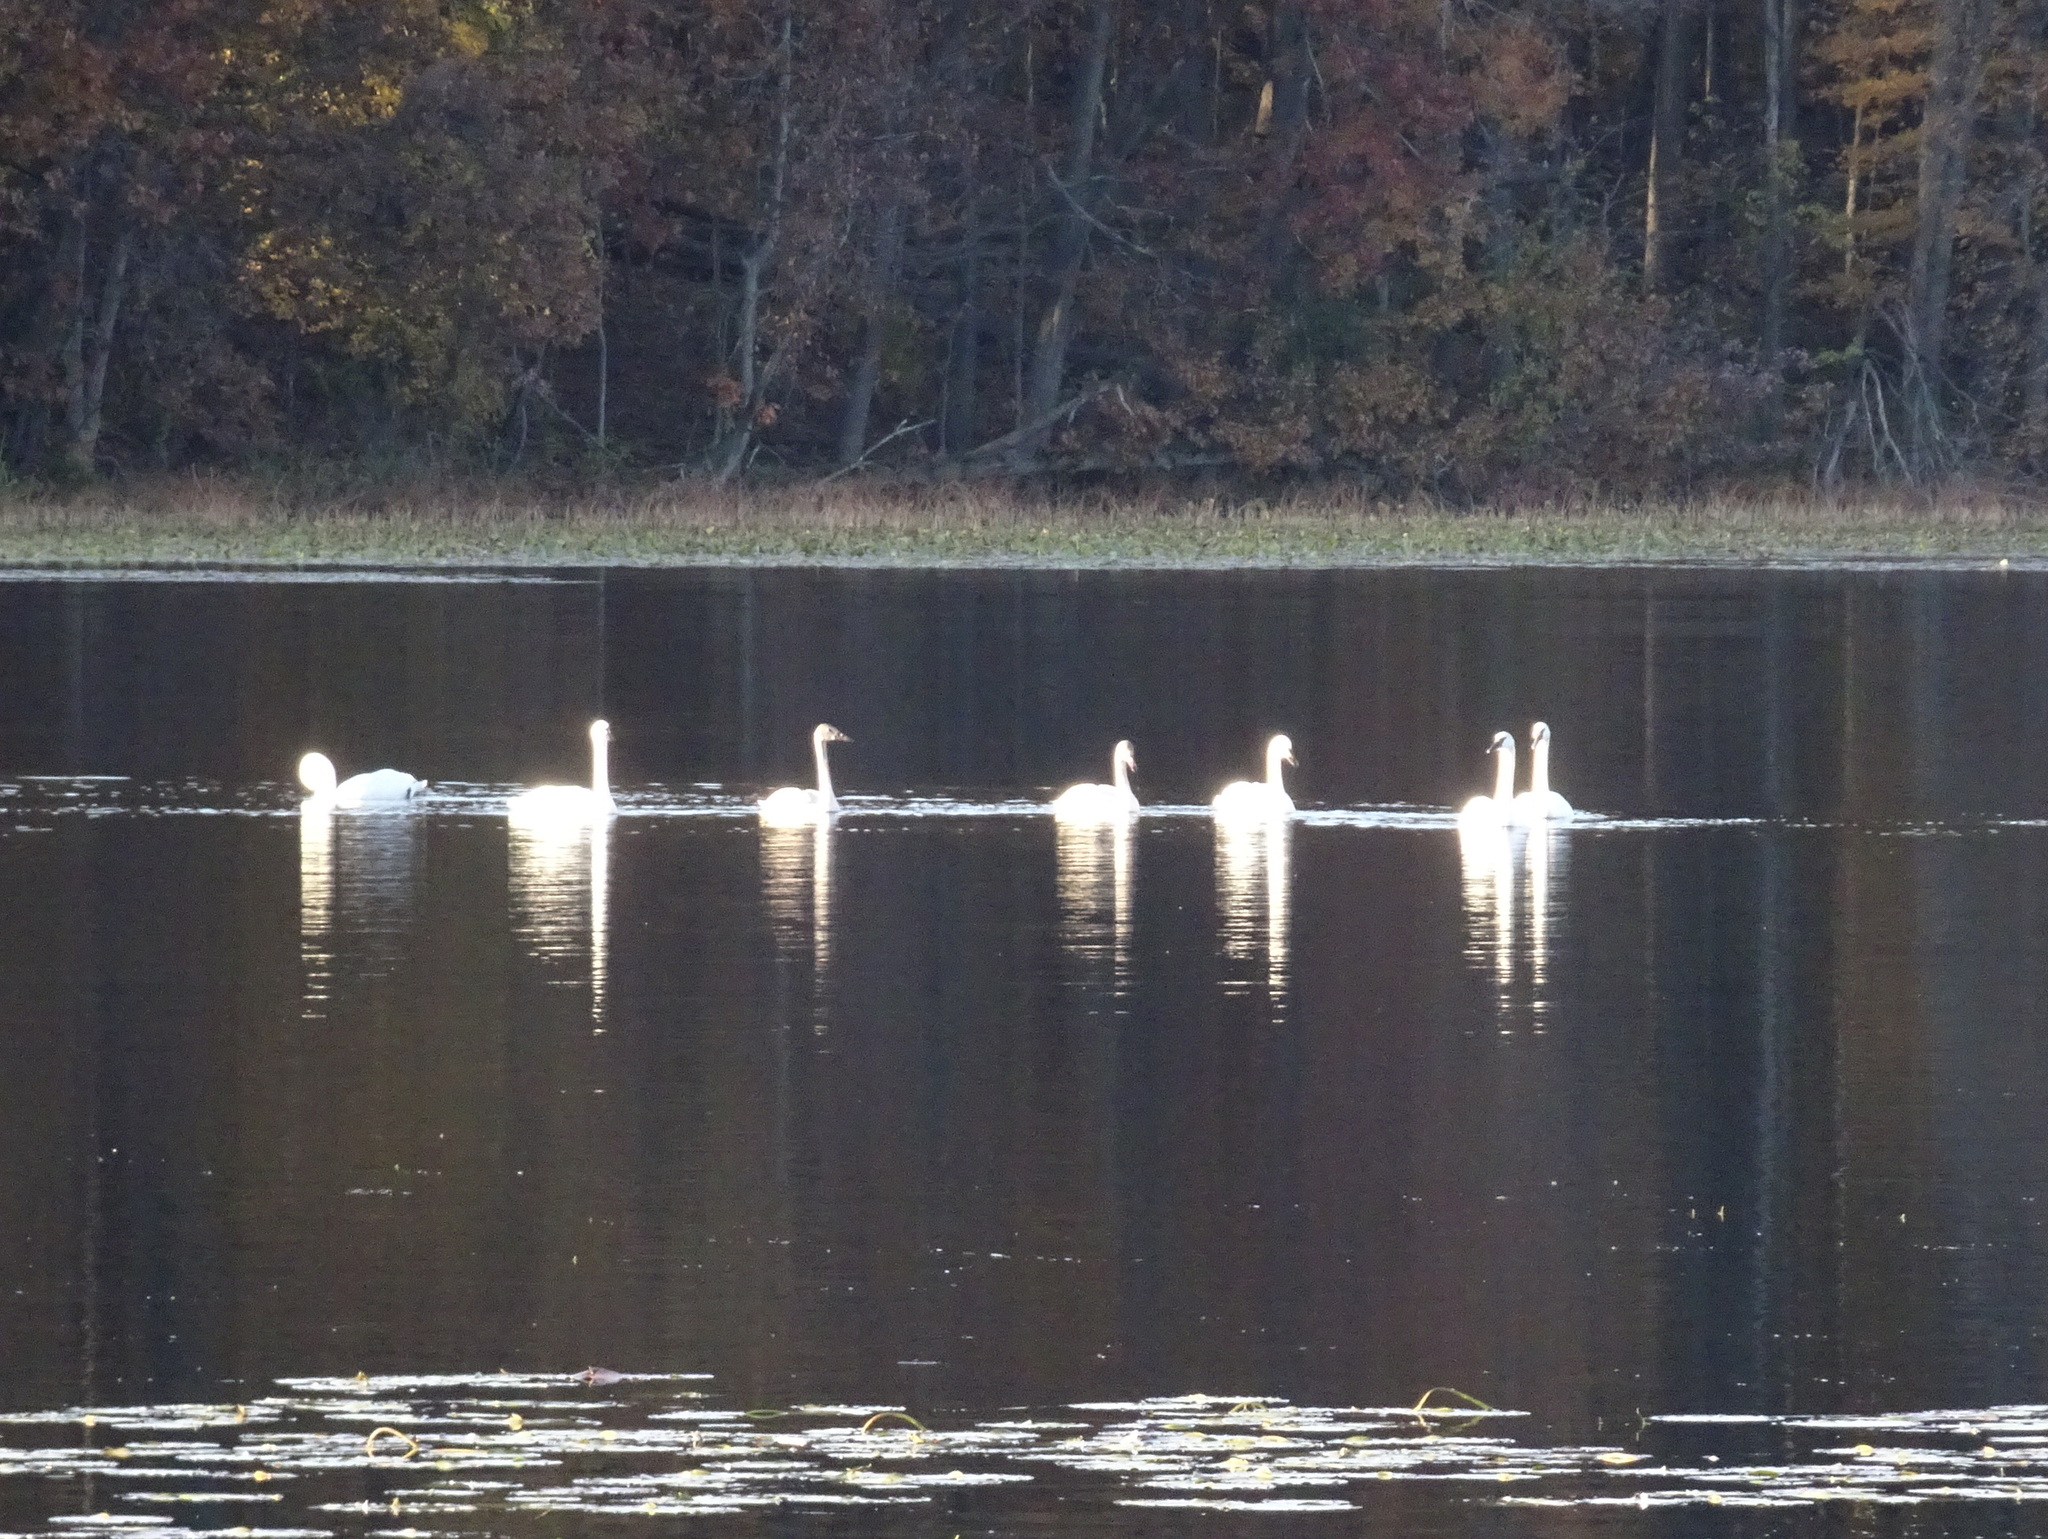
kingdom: Animalia
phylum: Chordata
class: Aves
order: Anseriformes
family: Anatidae
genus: Cygnus
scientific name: Cygnus buccinator
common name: Trumpeter swan
